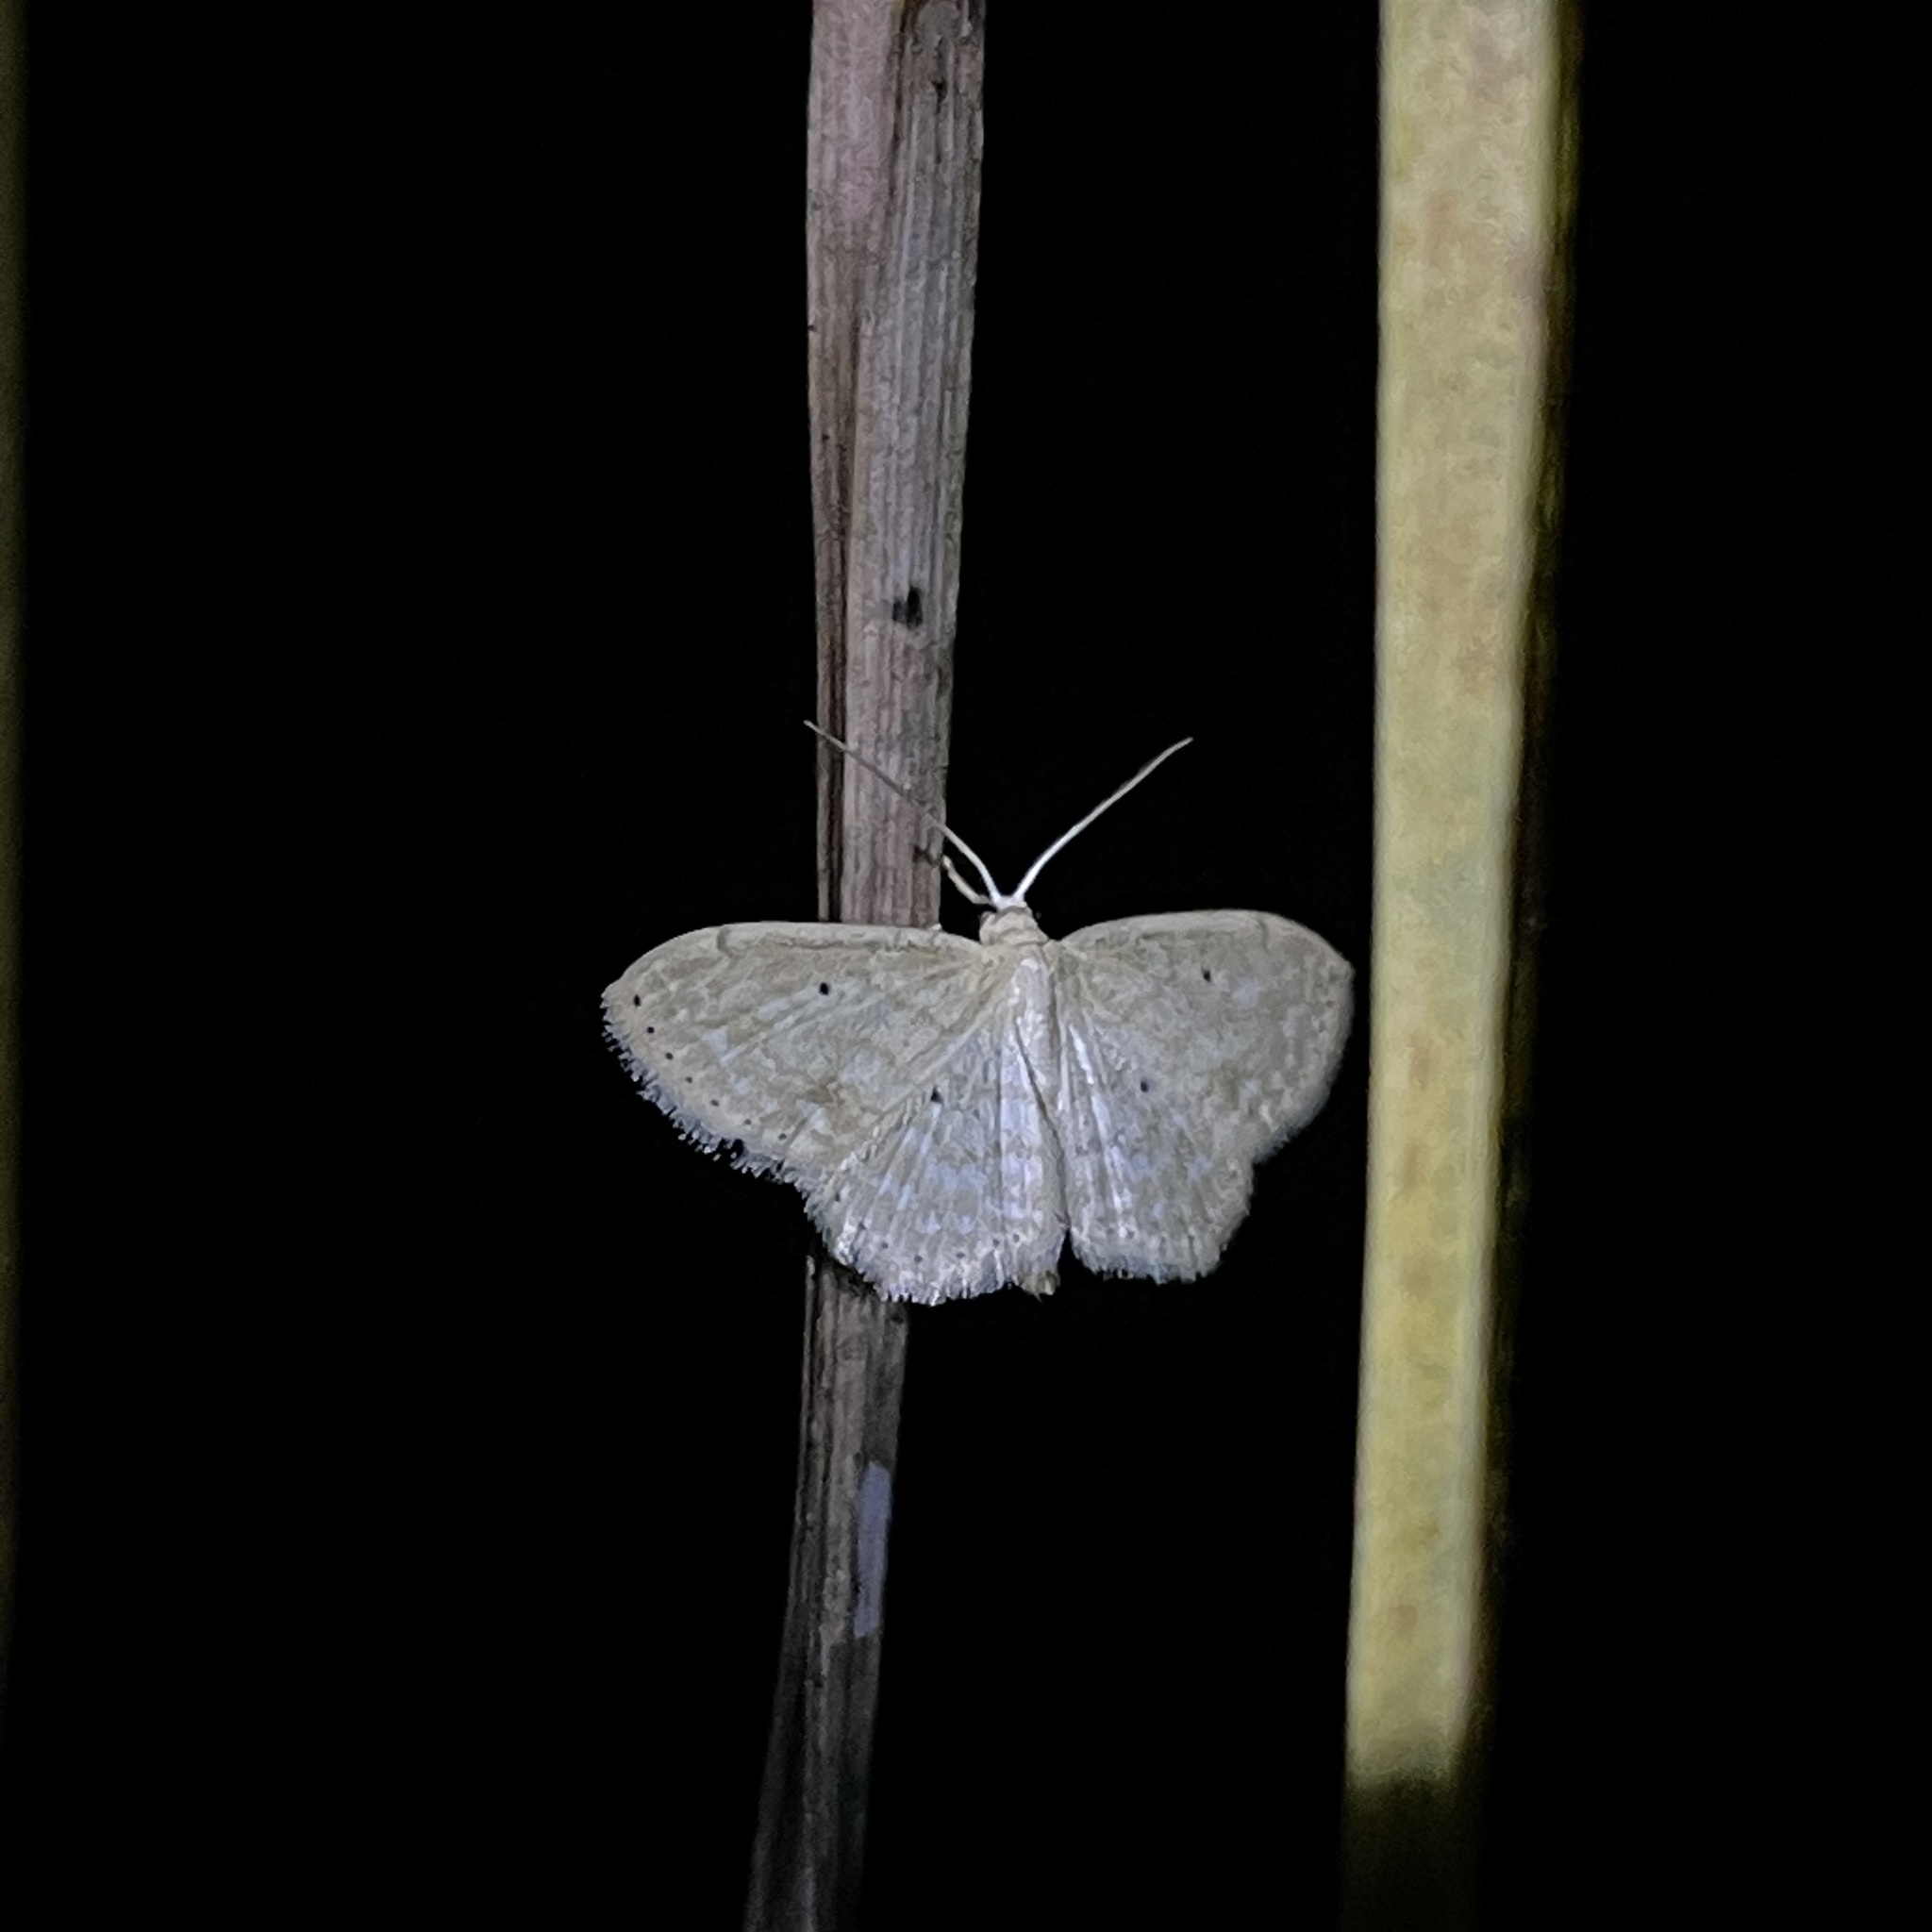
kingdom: Animalia
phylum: Arthropoda
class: Insecta
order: Lepidoptera
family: Geometridae
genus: Scopula
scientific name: Scopula apparitaria
